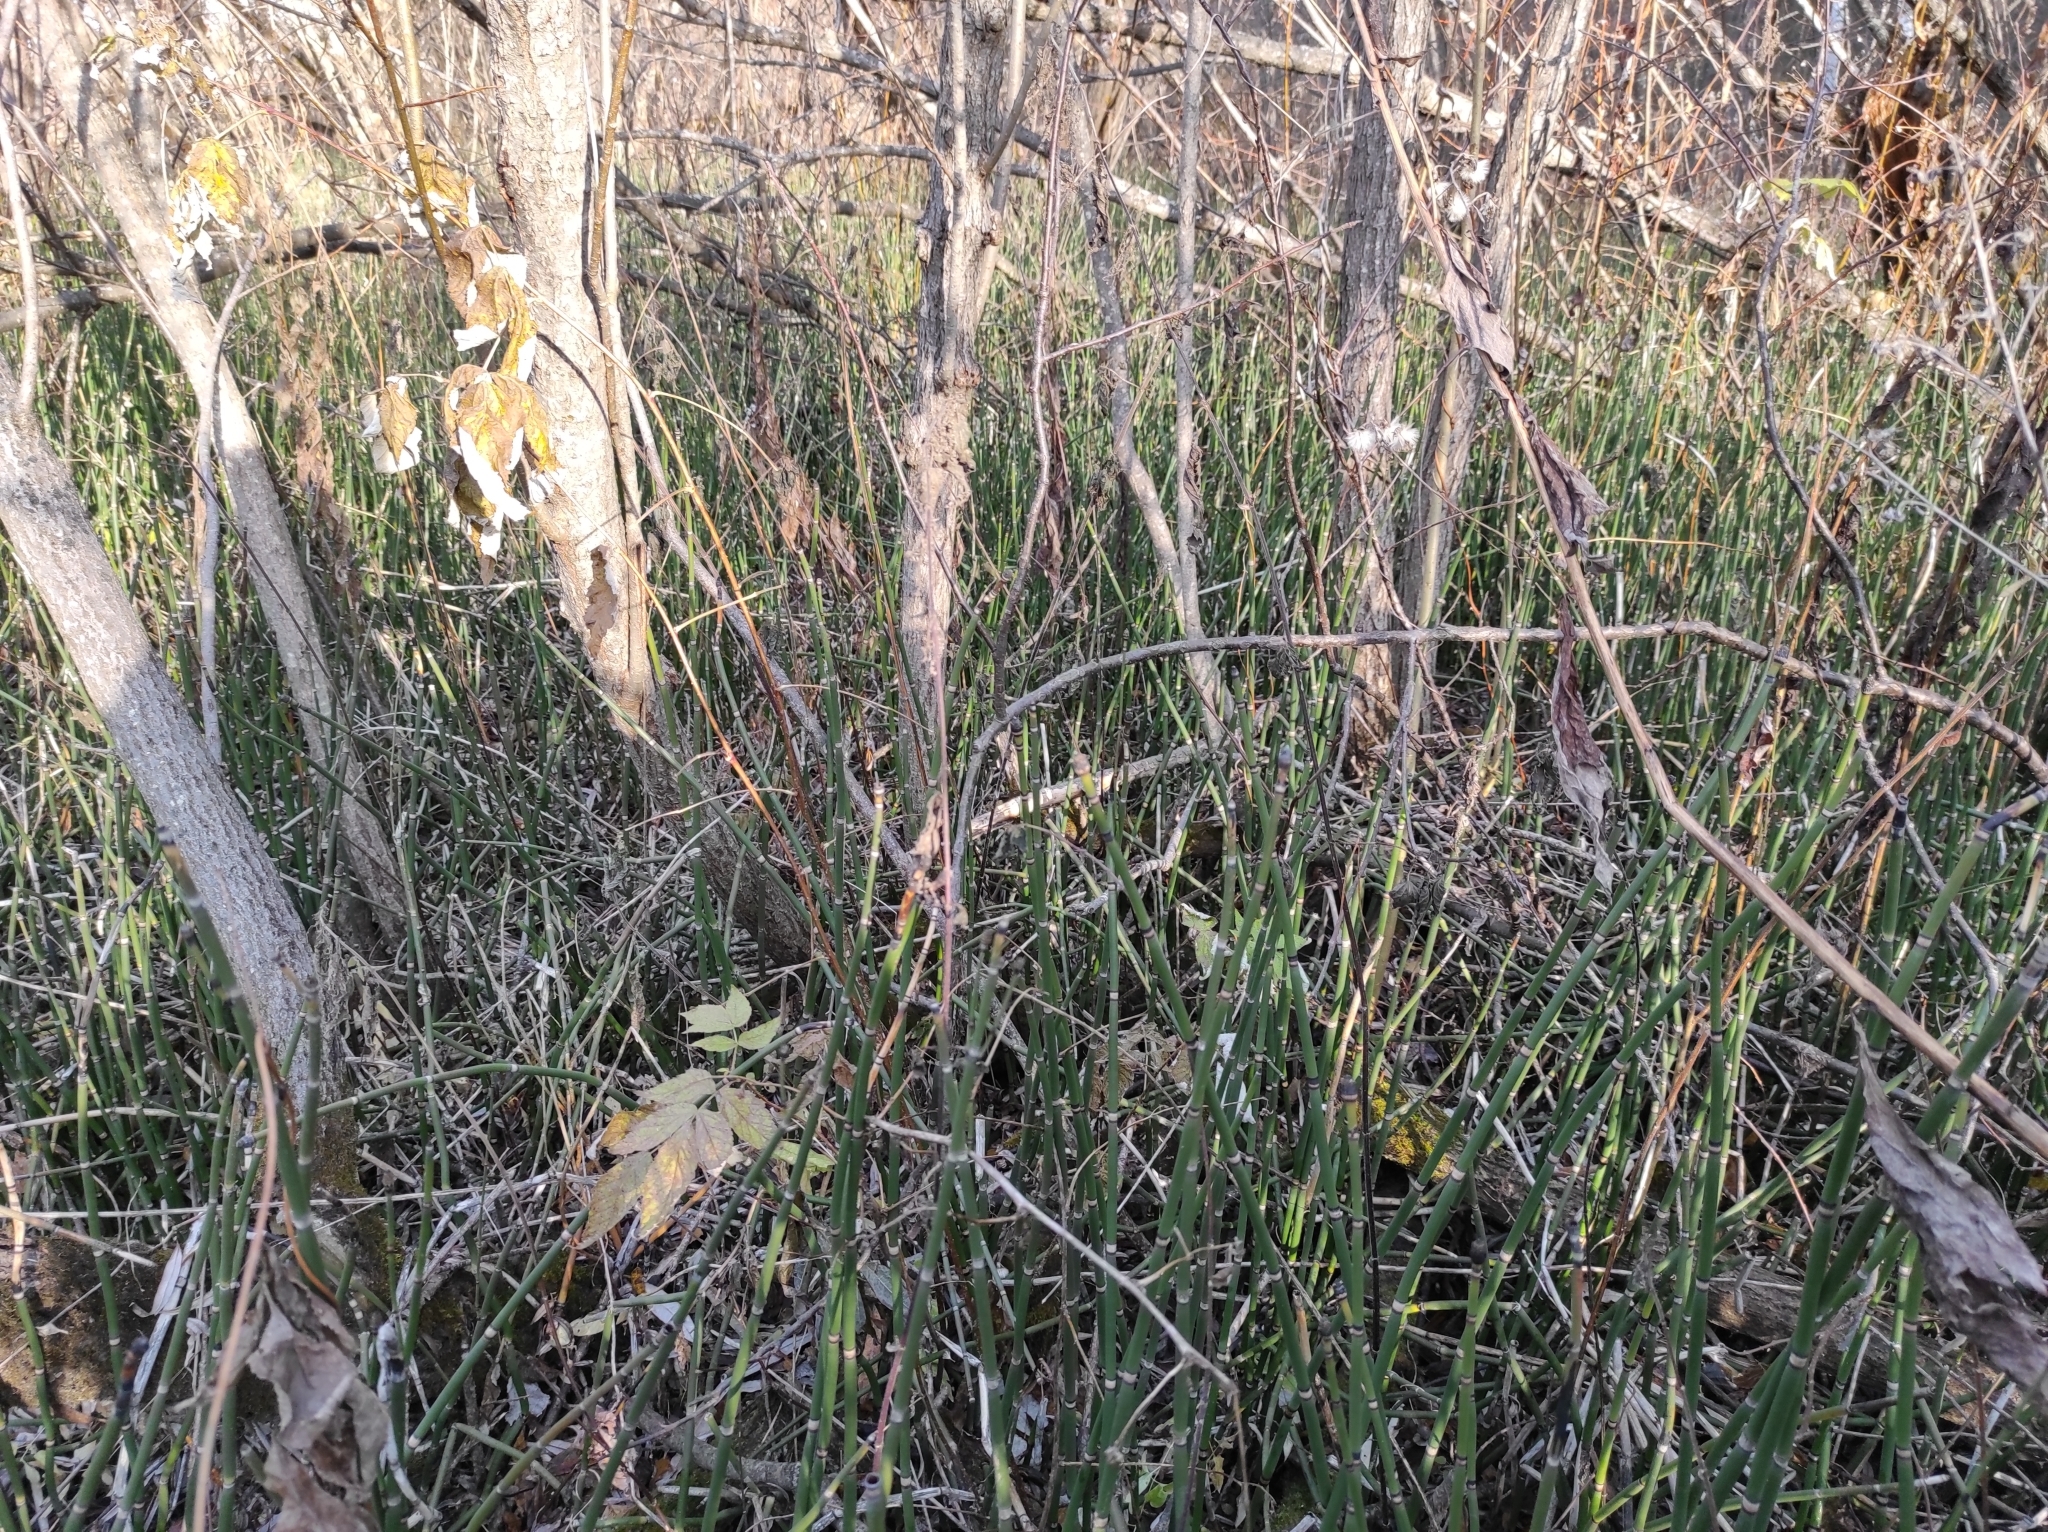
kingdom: Plantae
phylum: Tracheophyta
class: Polypodiopsida
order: Equisetales
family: Equisetaceae
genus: Equisetum
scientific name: Equisetum hyemale
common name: Rough horsetail
